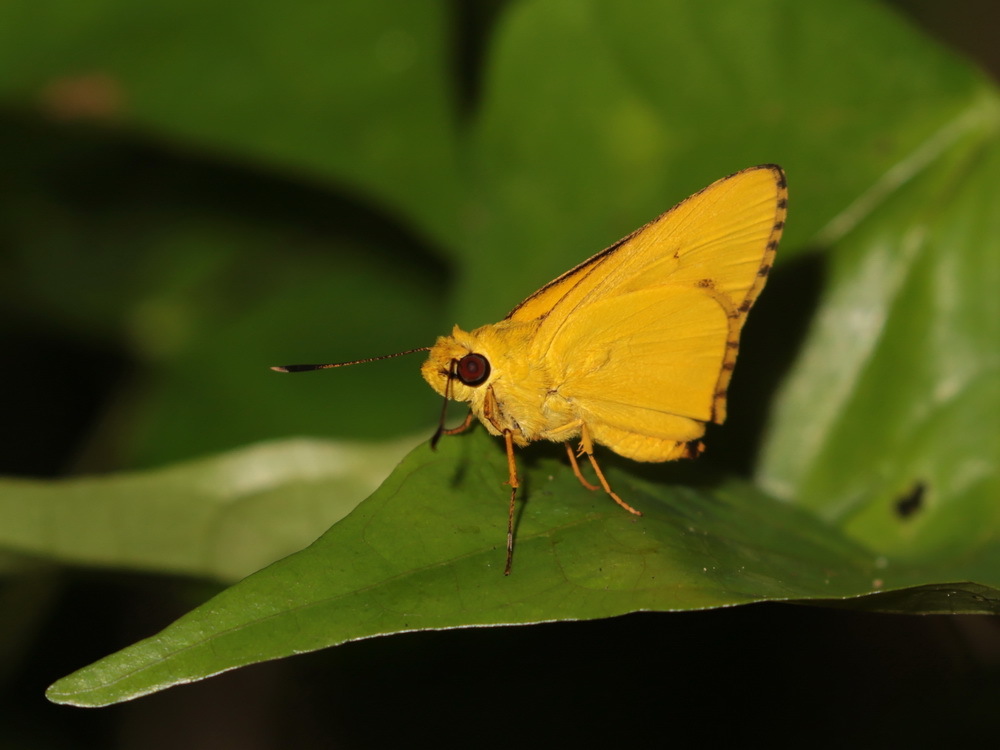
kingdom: Animalia
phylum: Arthropoda
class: Insecta
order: Lepidoptera
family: Hesperiidae
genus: Cupitha
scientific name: Cupitha purreea
